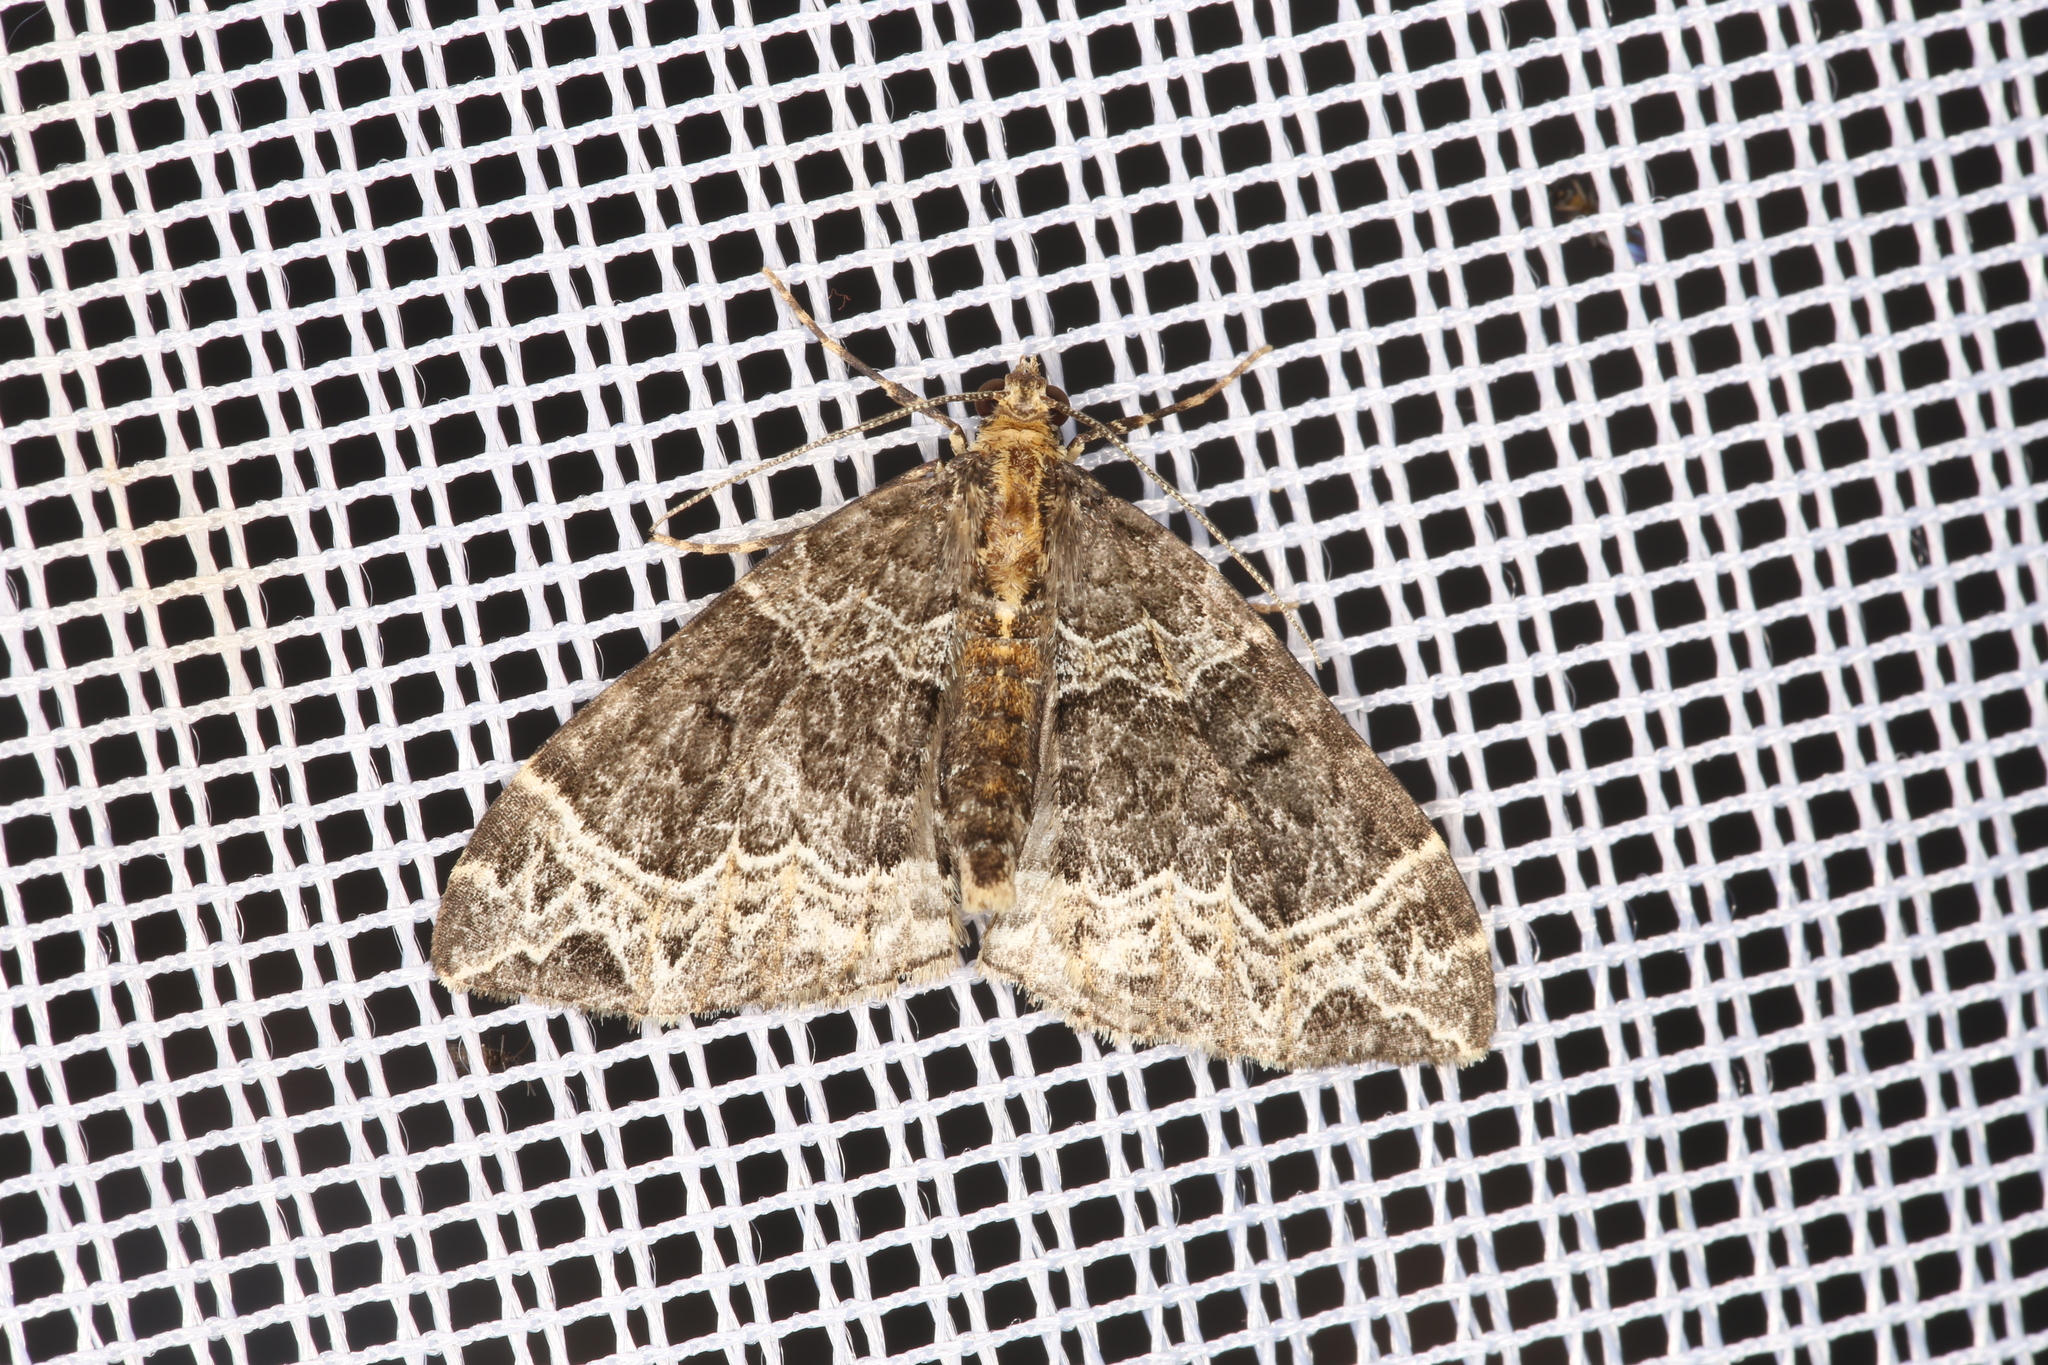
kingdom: Animalia
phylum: Arthropoda
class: Insecta
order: Lepidoptera
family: Geometridae
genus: Ecliptopera
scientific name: Ecliptopera silaceata
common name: Small phoenix
